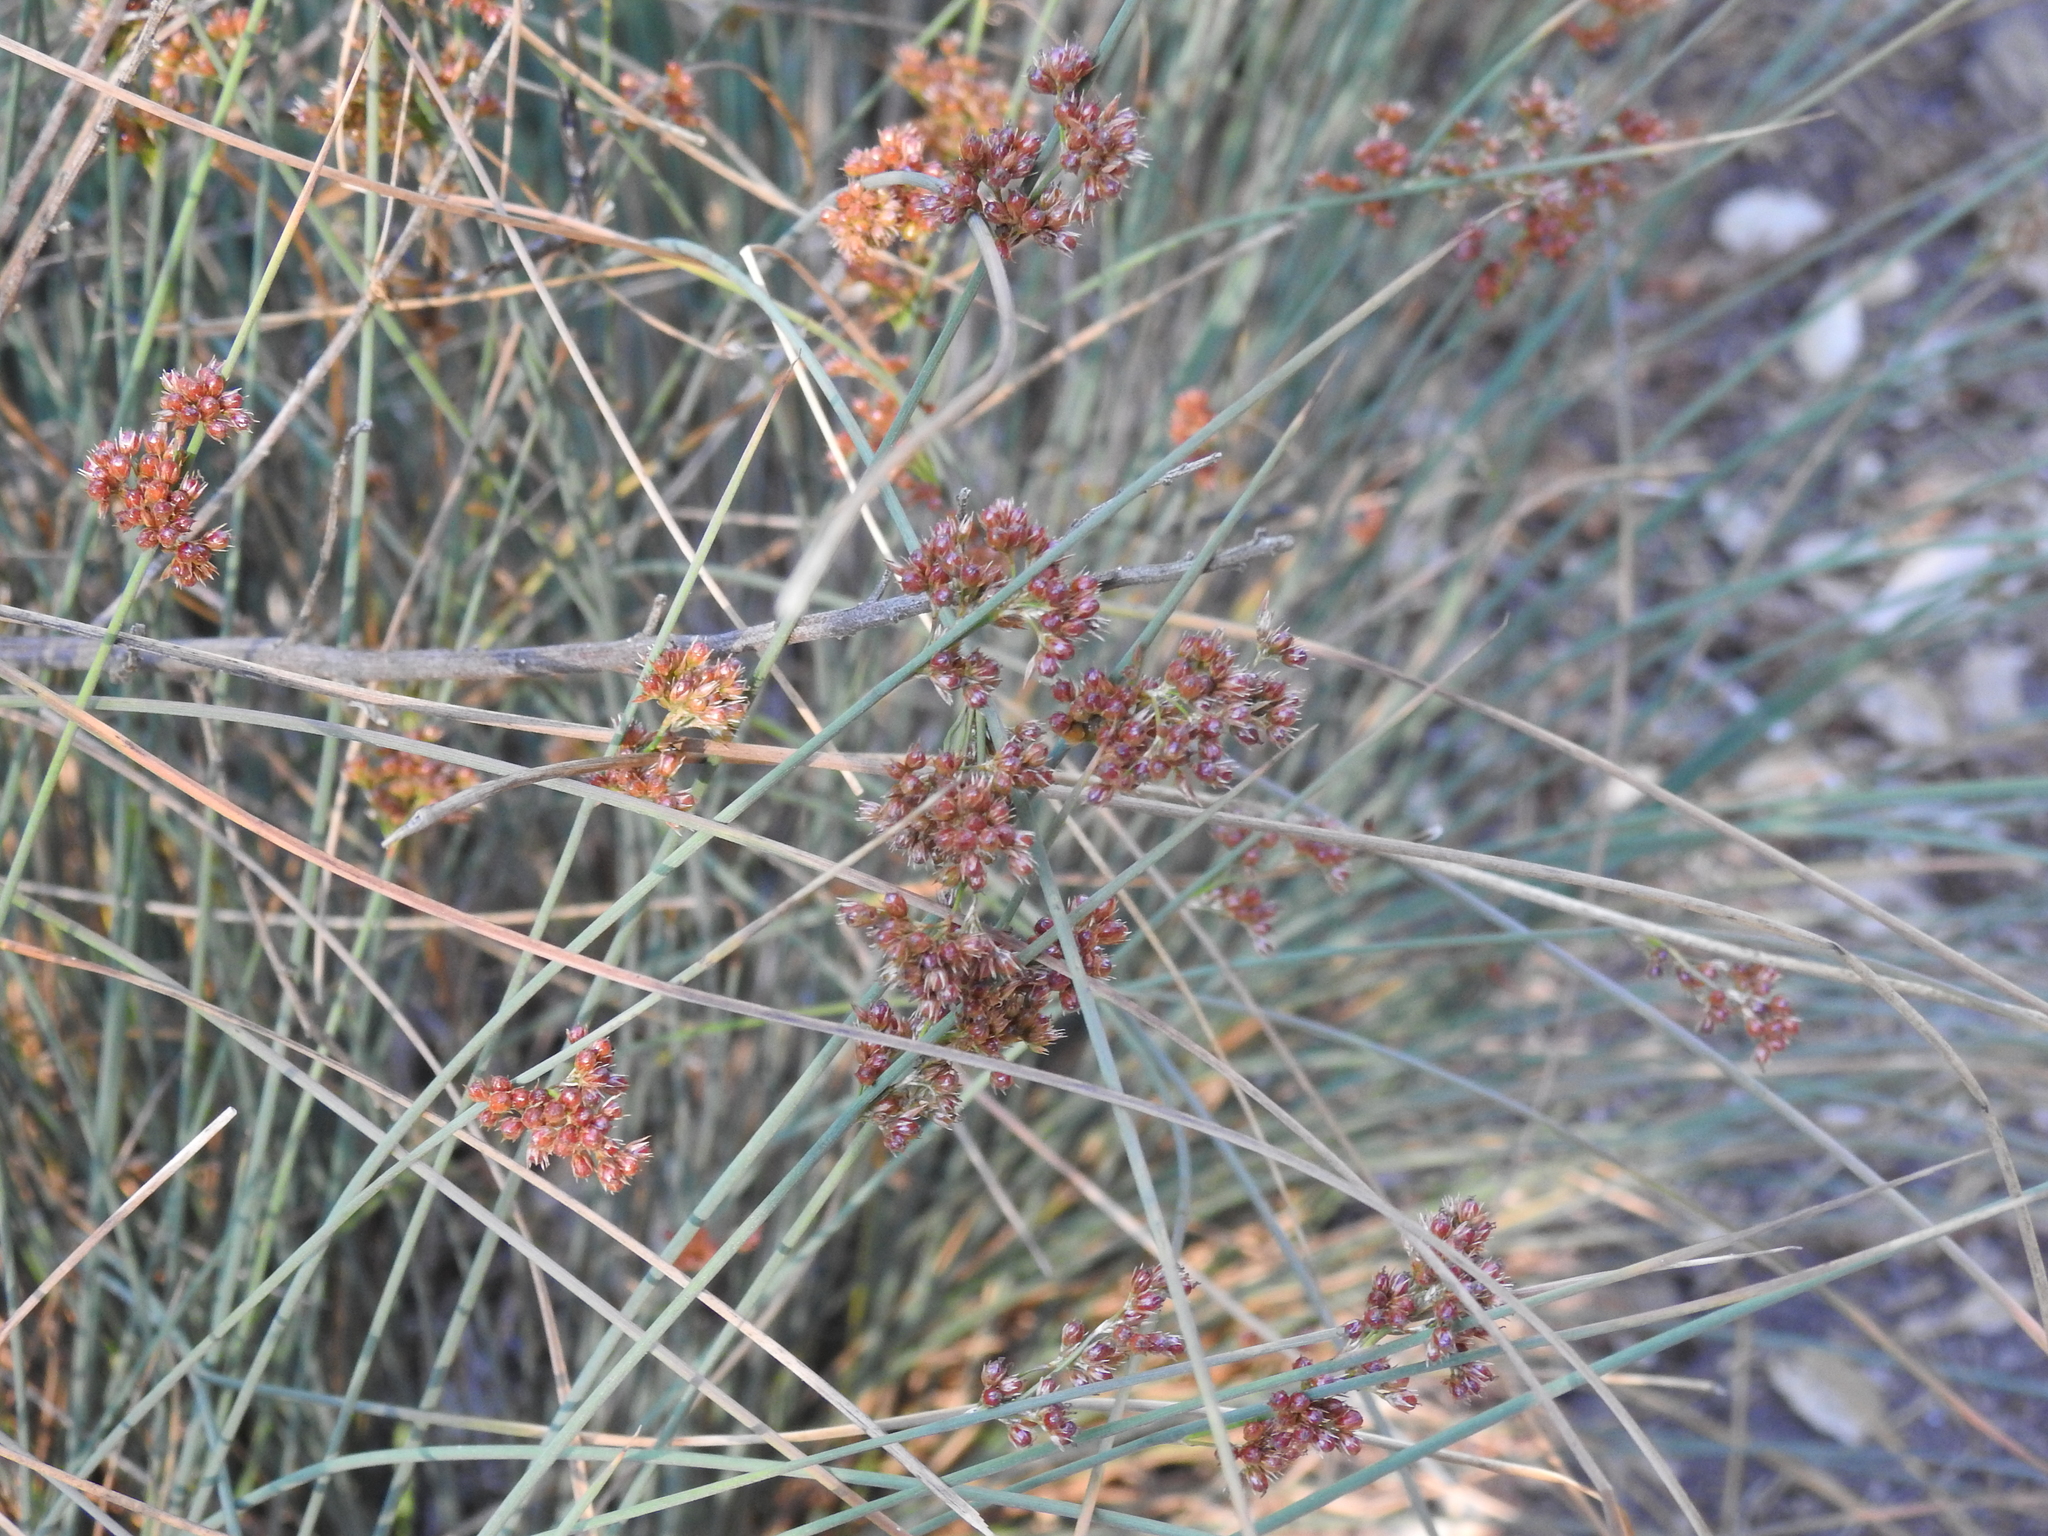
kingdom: Plantae
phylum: Tracheophyta
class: Liliopsida
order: Poales
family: Juncaceae
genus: Juncus
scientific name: Juncus patens
